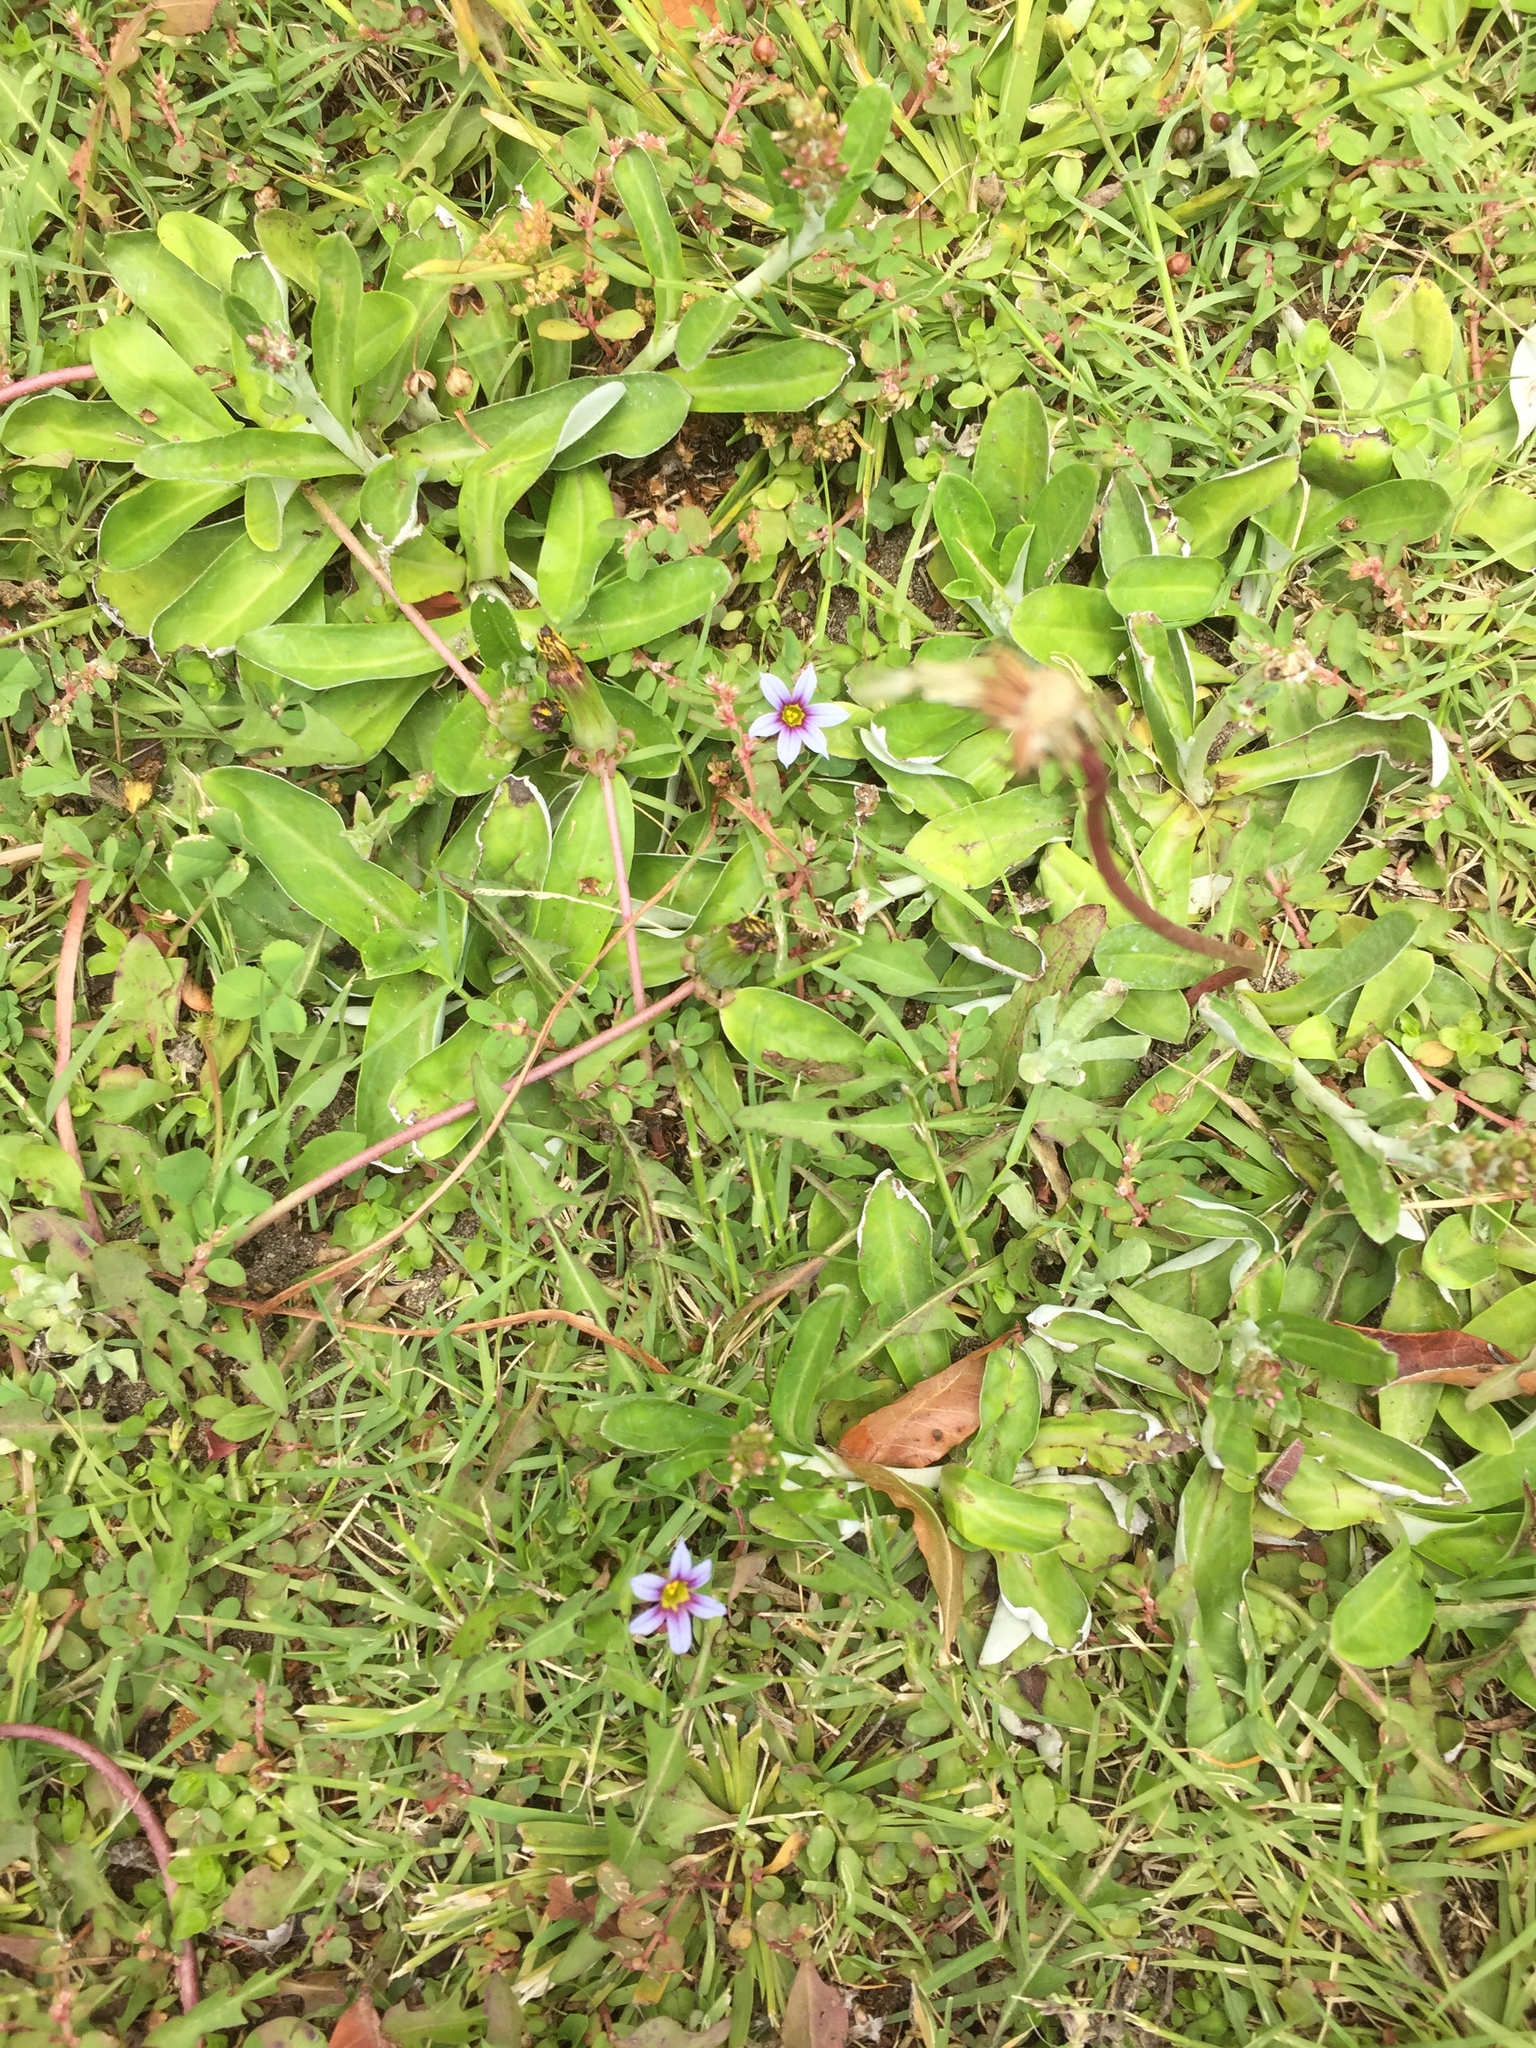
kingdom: Plantae
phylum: Tracheophyta
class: Liliopsida
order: Asparagales
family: Iridaceae
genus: Sisyrinchium
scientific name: Sisyrinchium micranthum
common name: Bermuda pigroot
